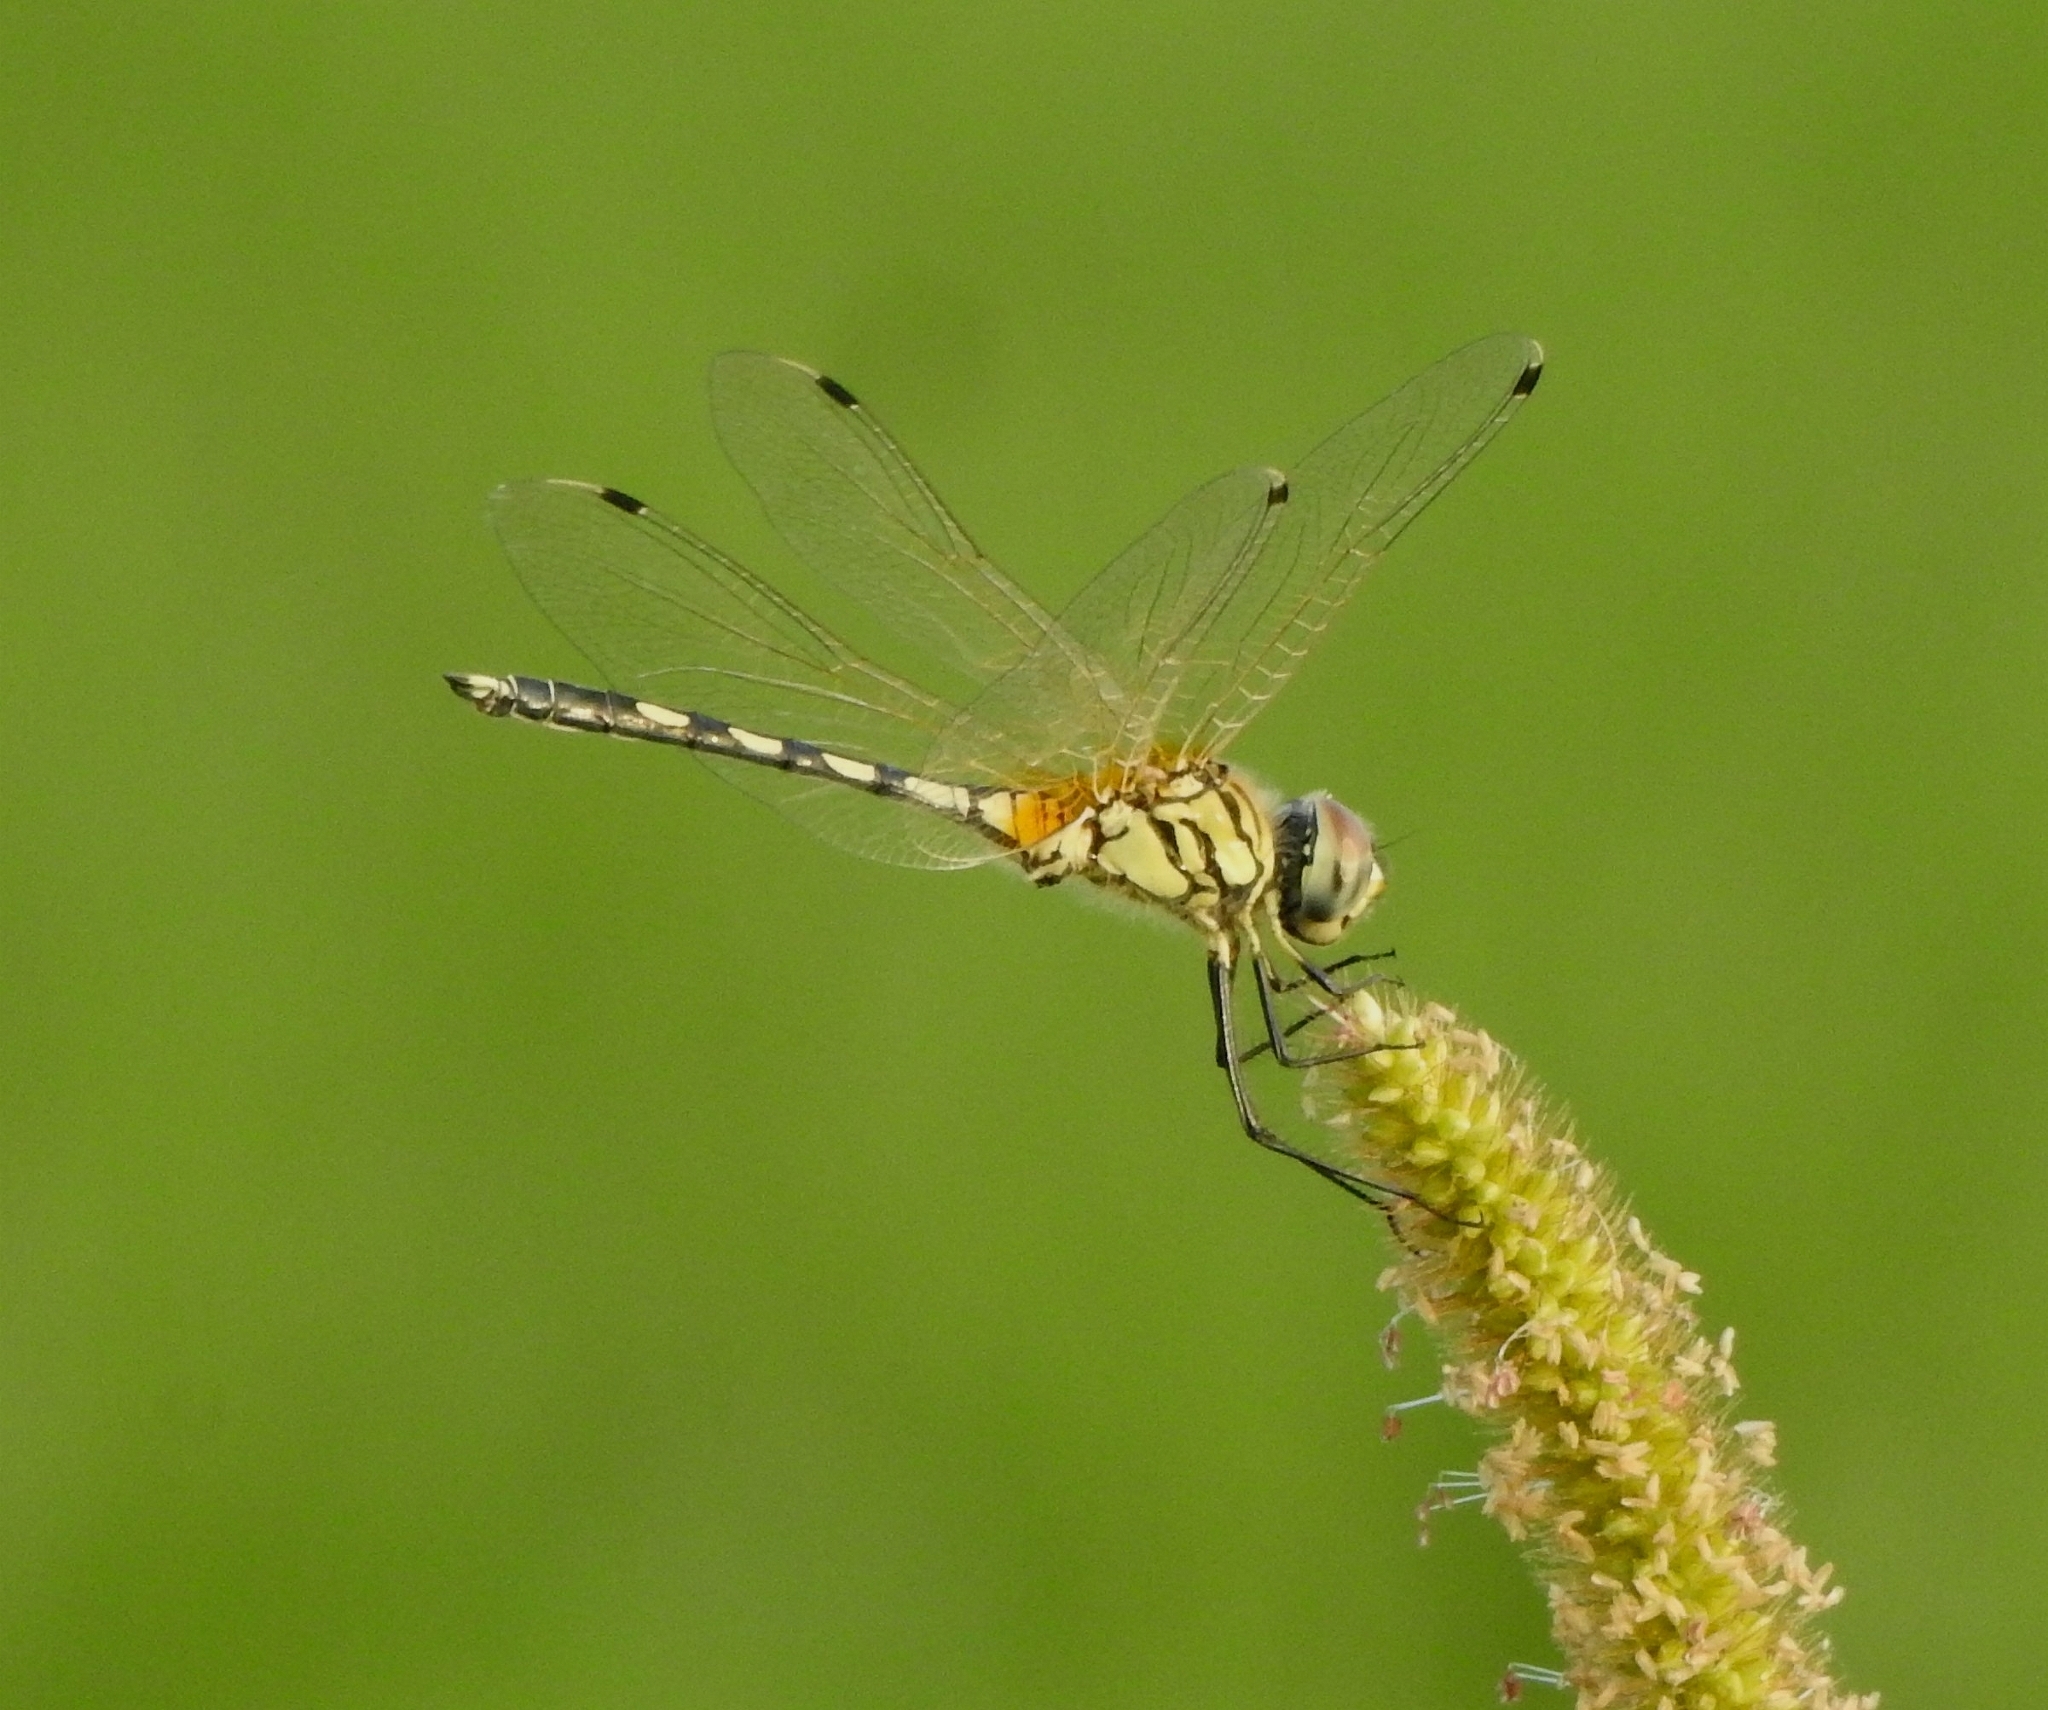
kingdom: Animalia
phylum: Arthropoda
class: Insecta
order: Odonata
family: Libellulidae
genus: Trithemis
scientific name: Trithemis pallidinervis
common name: Dancing dropwing
